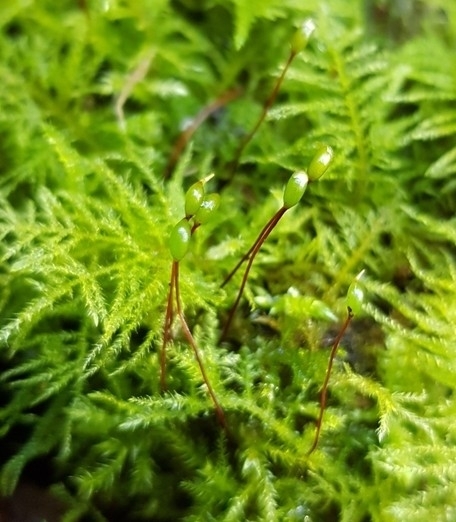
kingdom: Plantae
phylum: Bryophyta
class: Bryopsida
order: Hypnales
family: Brachytheciaceae
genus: Kindbergia
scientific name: Kindbergia praelonga
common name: Slender beaked moss
